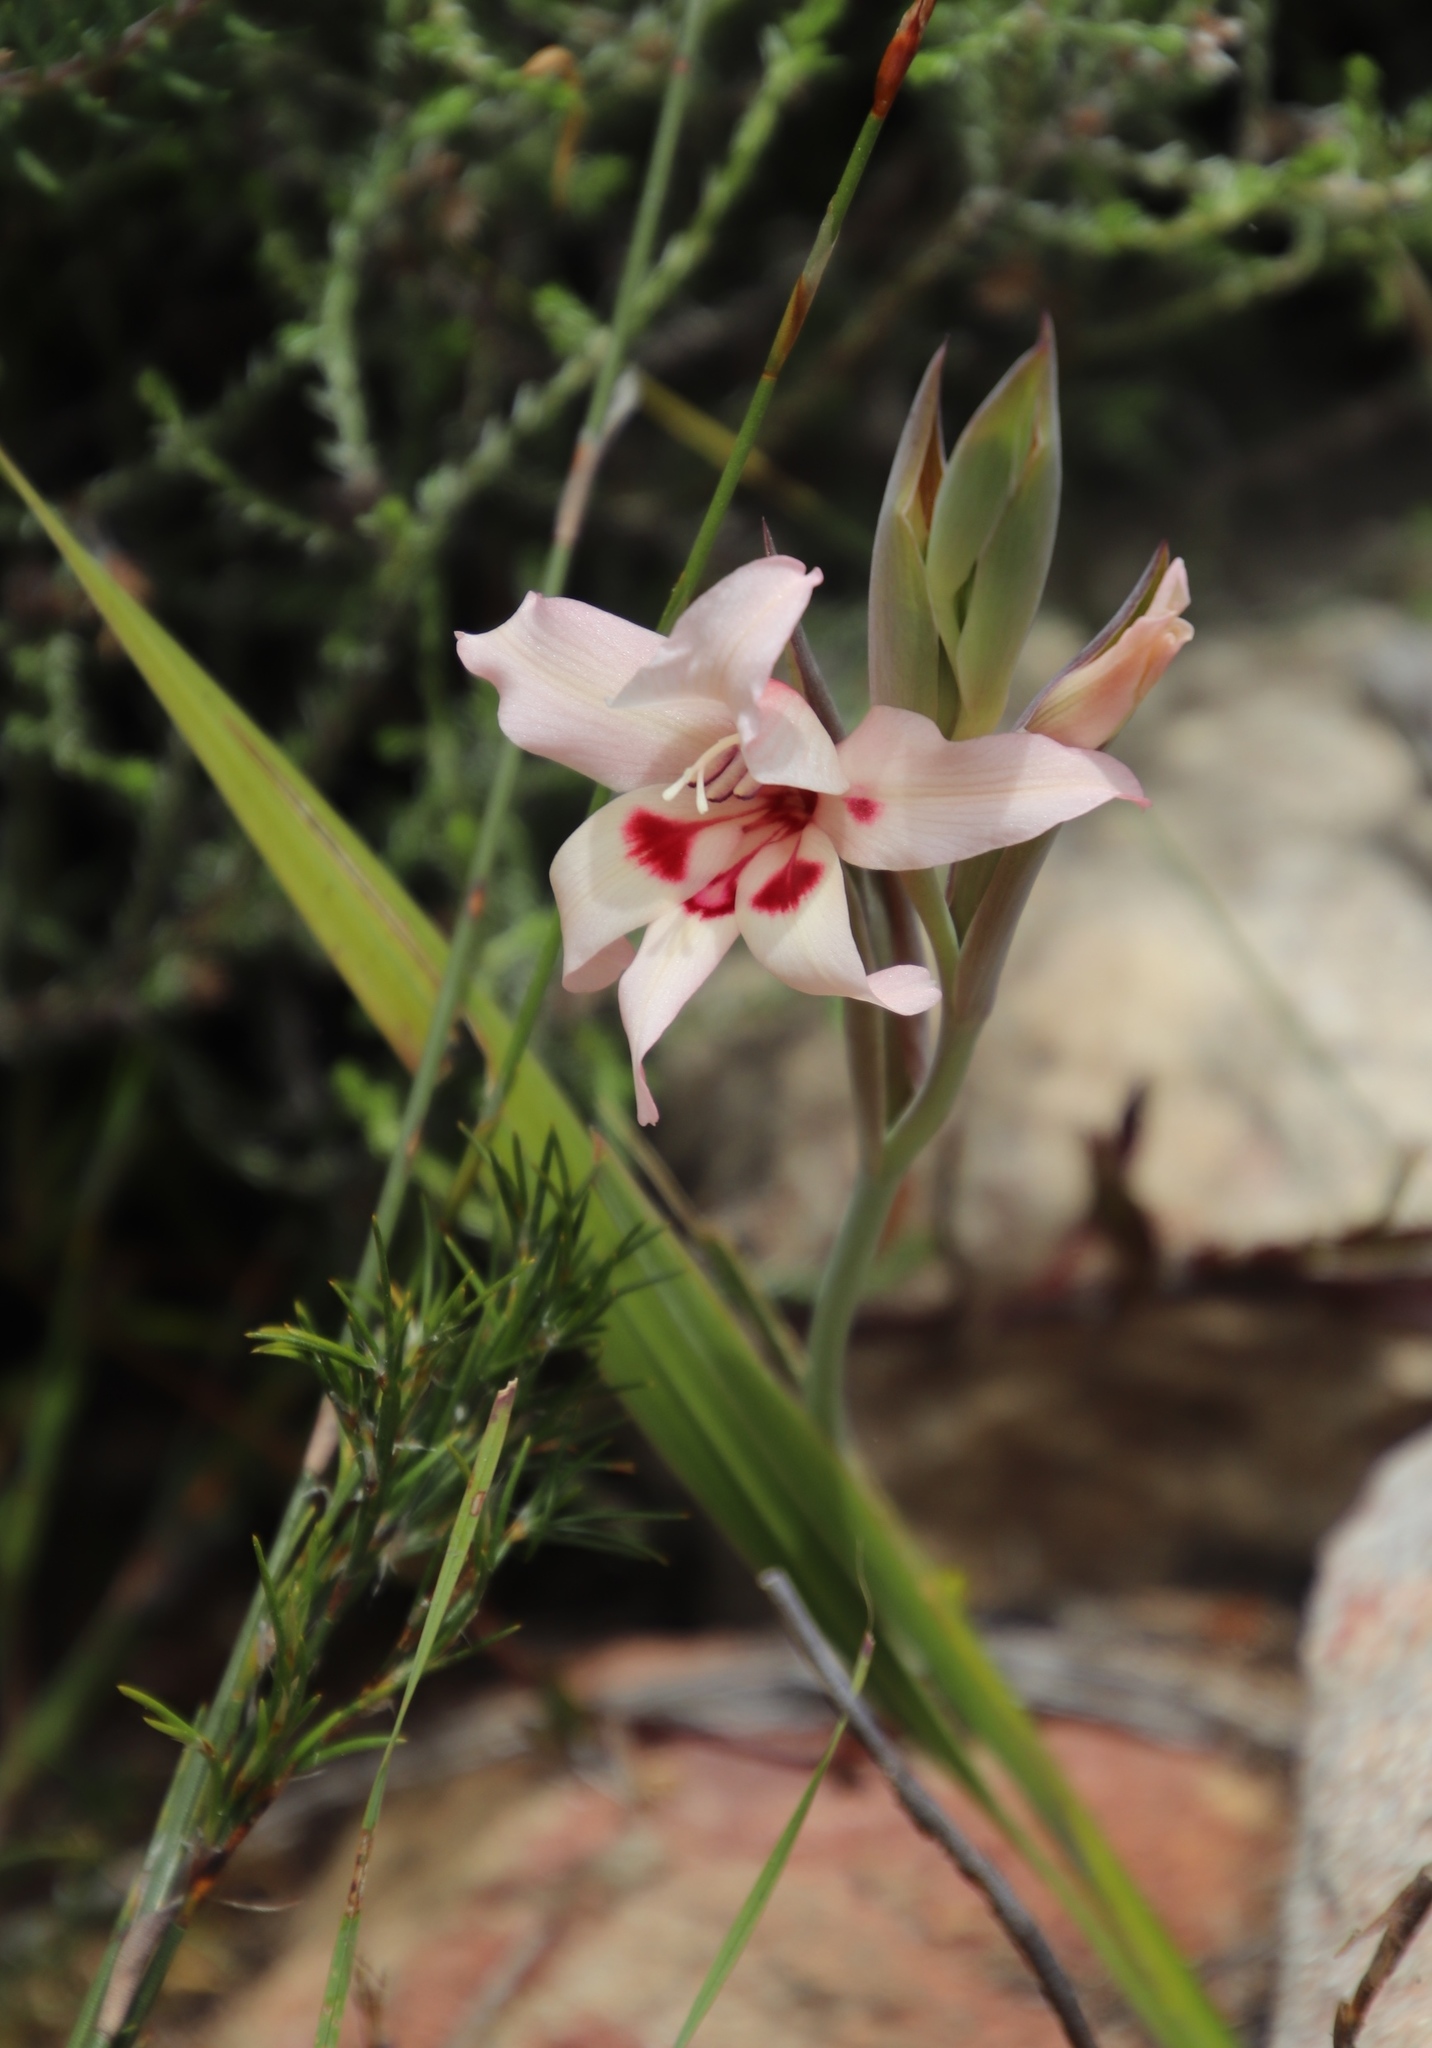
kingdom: Plantae
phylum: Tracheophyta
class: Liliopsida
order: Asparagales
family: Iridaceae
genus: Gladiolus
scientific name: Gladiolus carneus
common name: Painted-lady
